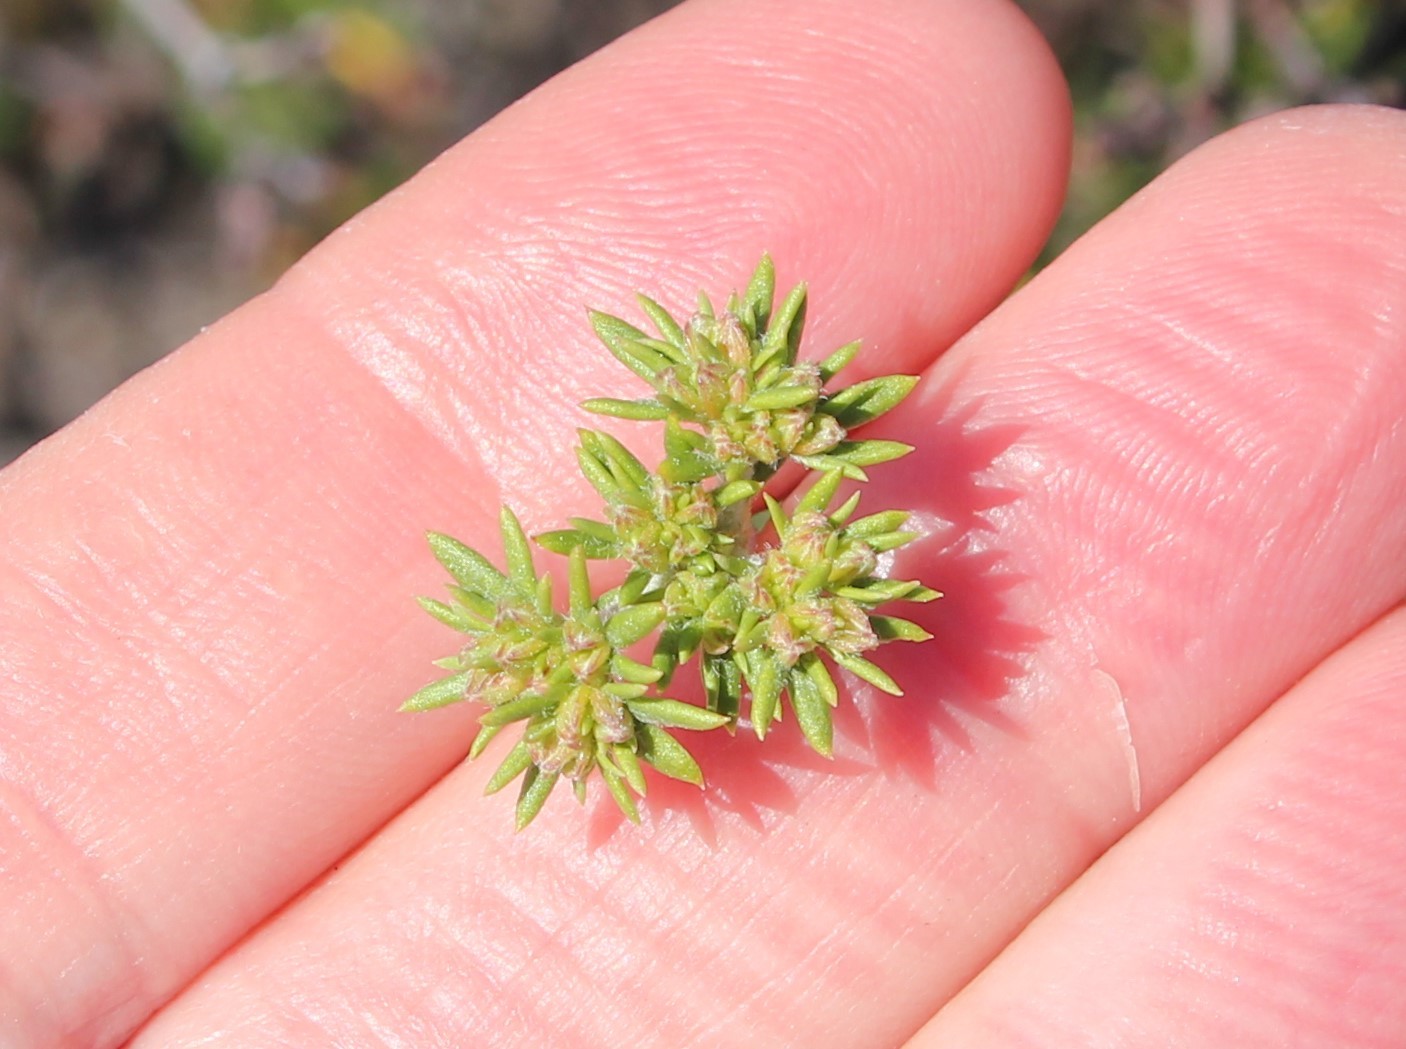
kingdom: Plantae
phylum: Tracheophyta
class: Magnoliopsida
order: Caryophyllales
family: Polygonaceae
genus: Eriogonum
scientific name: Eriogonum fasciculatum
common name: California wild buckwheat
